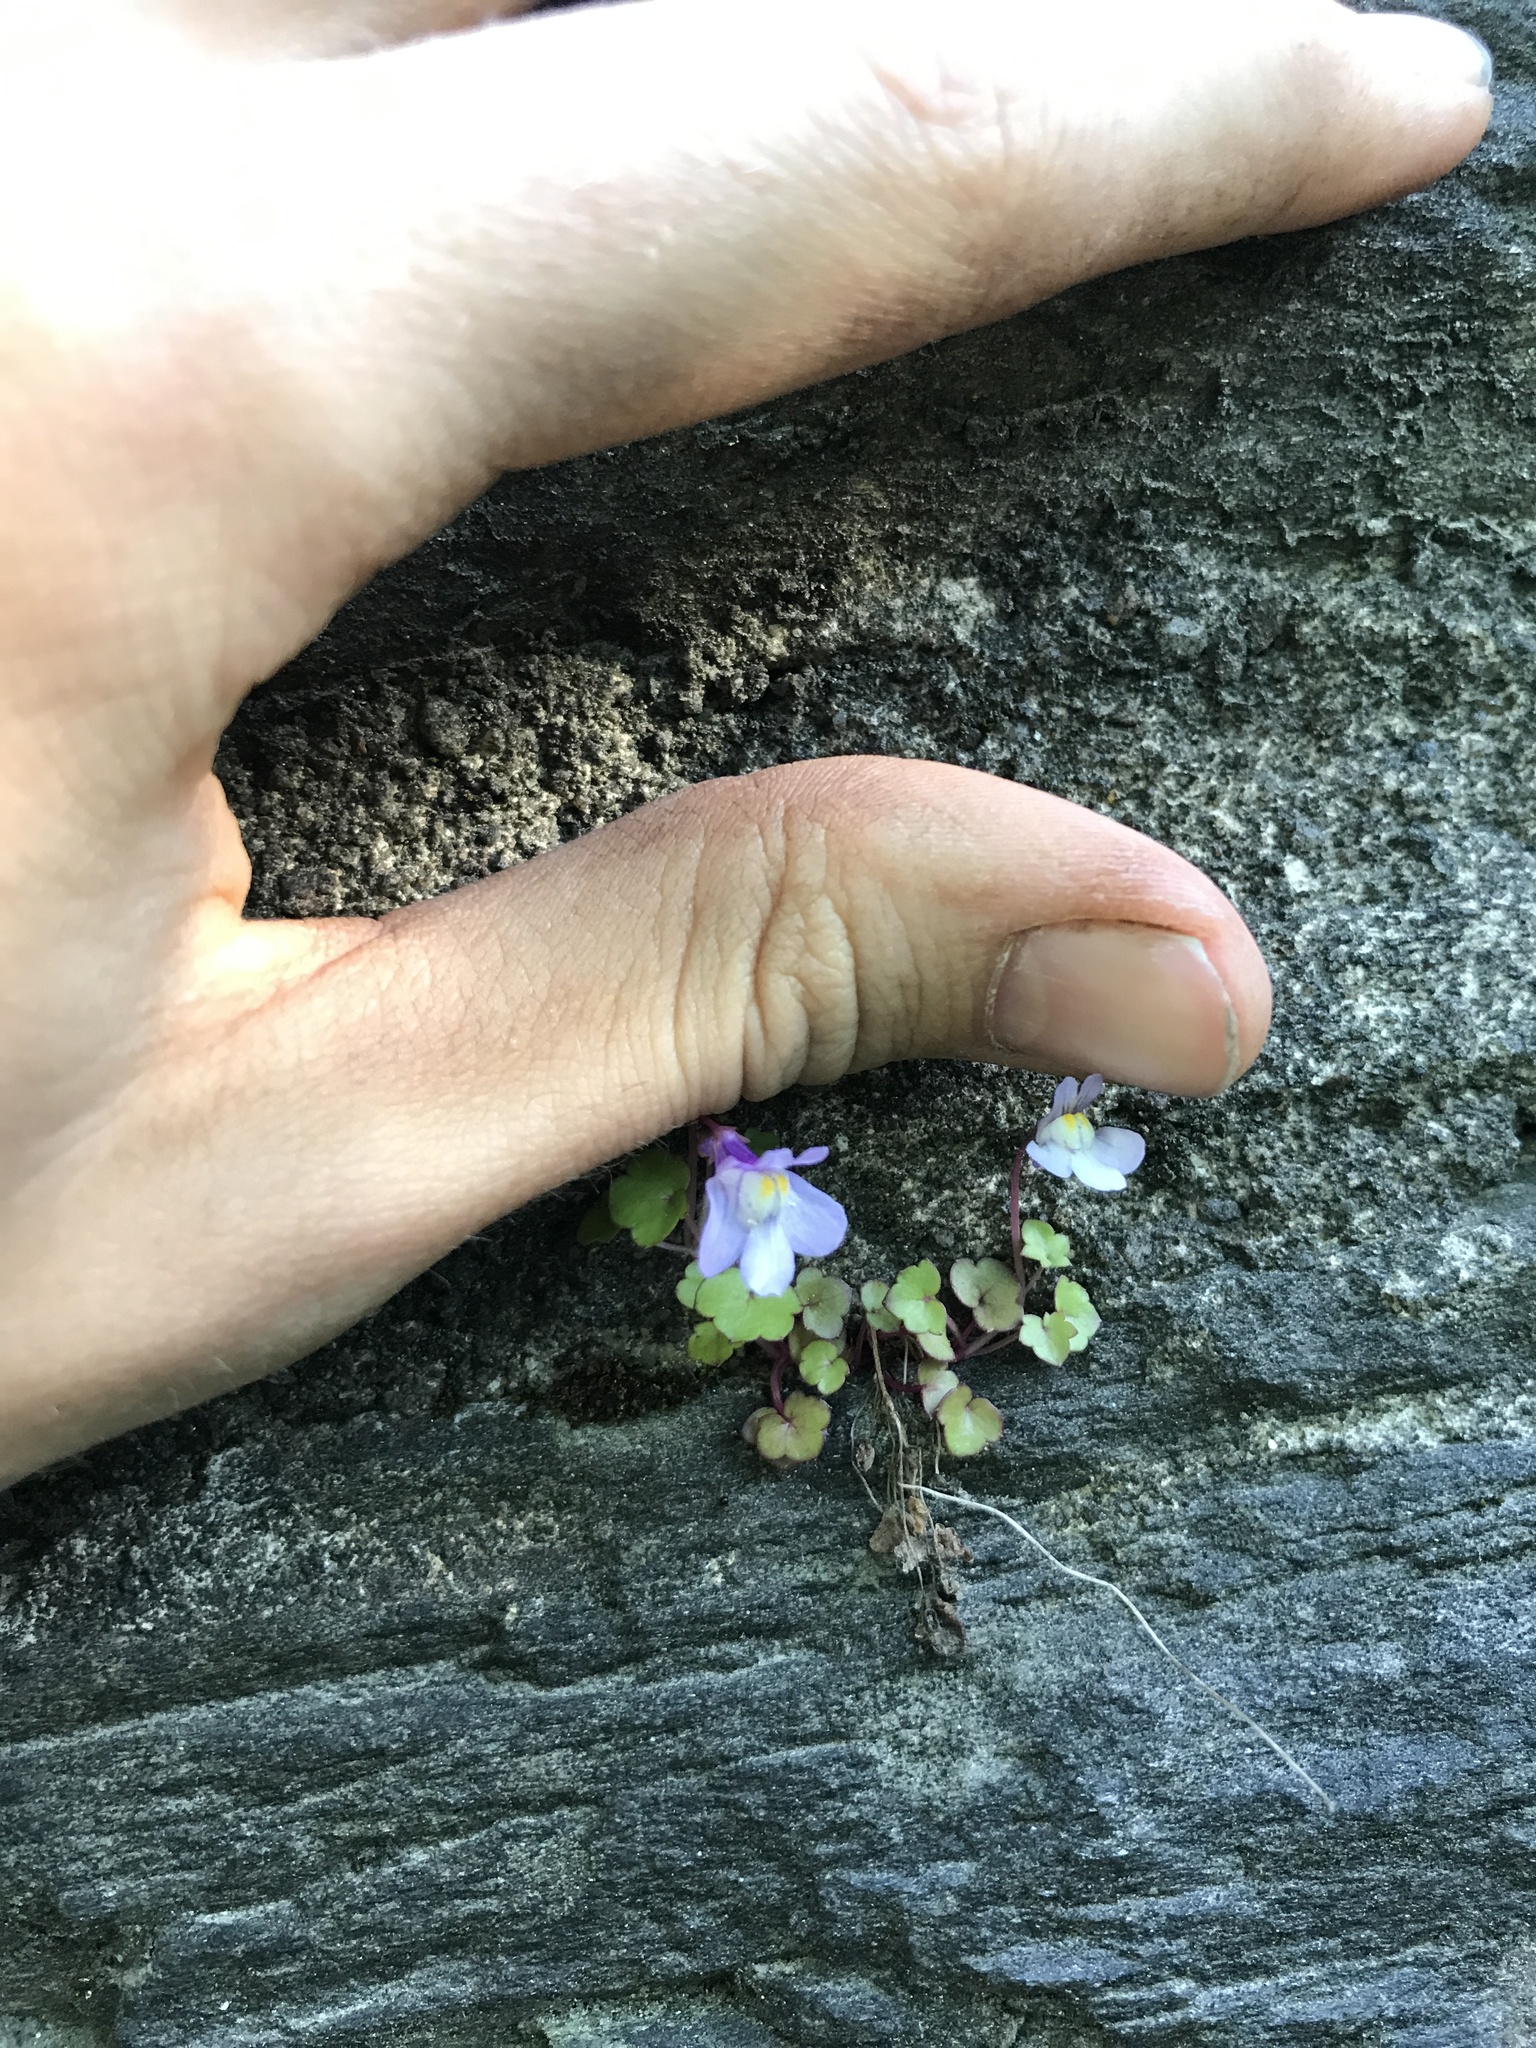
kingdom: Plantae
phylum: Tracheophyta
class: Magnoliopsida
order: Lamiales
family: Plantaginaceae
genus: Cymbalaria
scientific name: Cymbalaria muralis
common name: Ivy-leaved toadflax
